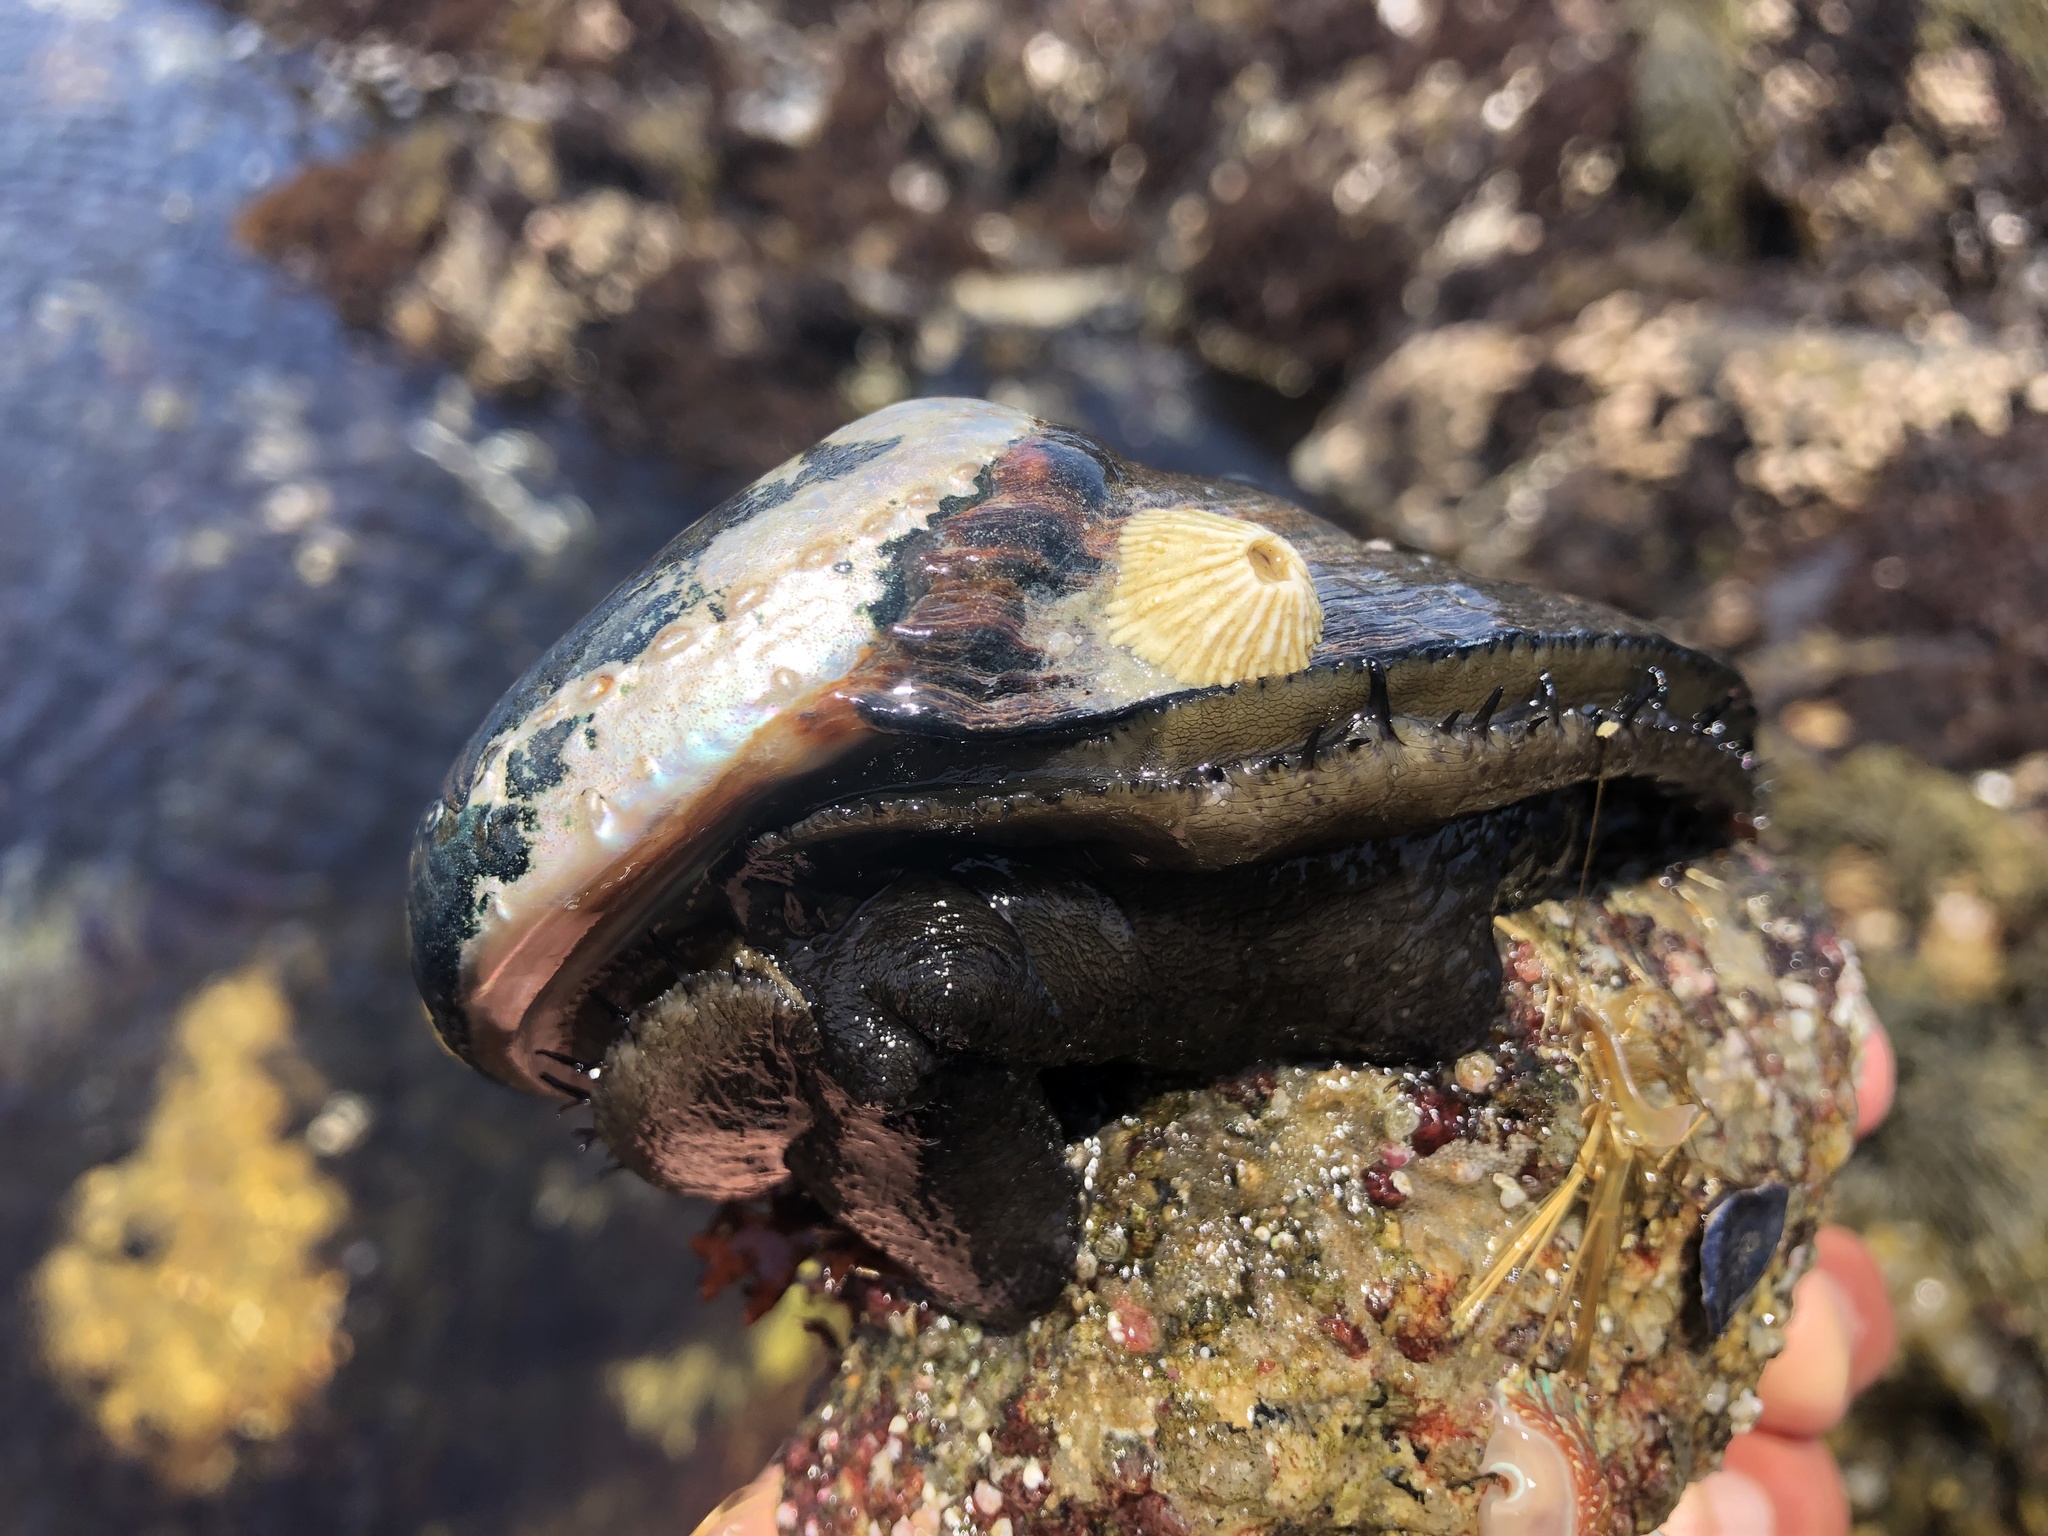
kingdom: Animalia
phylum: Mollusca
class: Gastropoda
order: Lepetellida
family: Haliotidae
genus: Haliotis
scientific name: Haliotis cracherodii
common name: Black abalone
